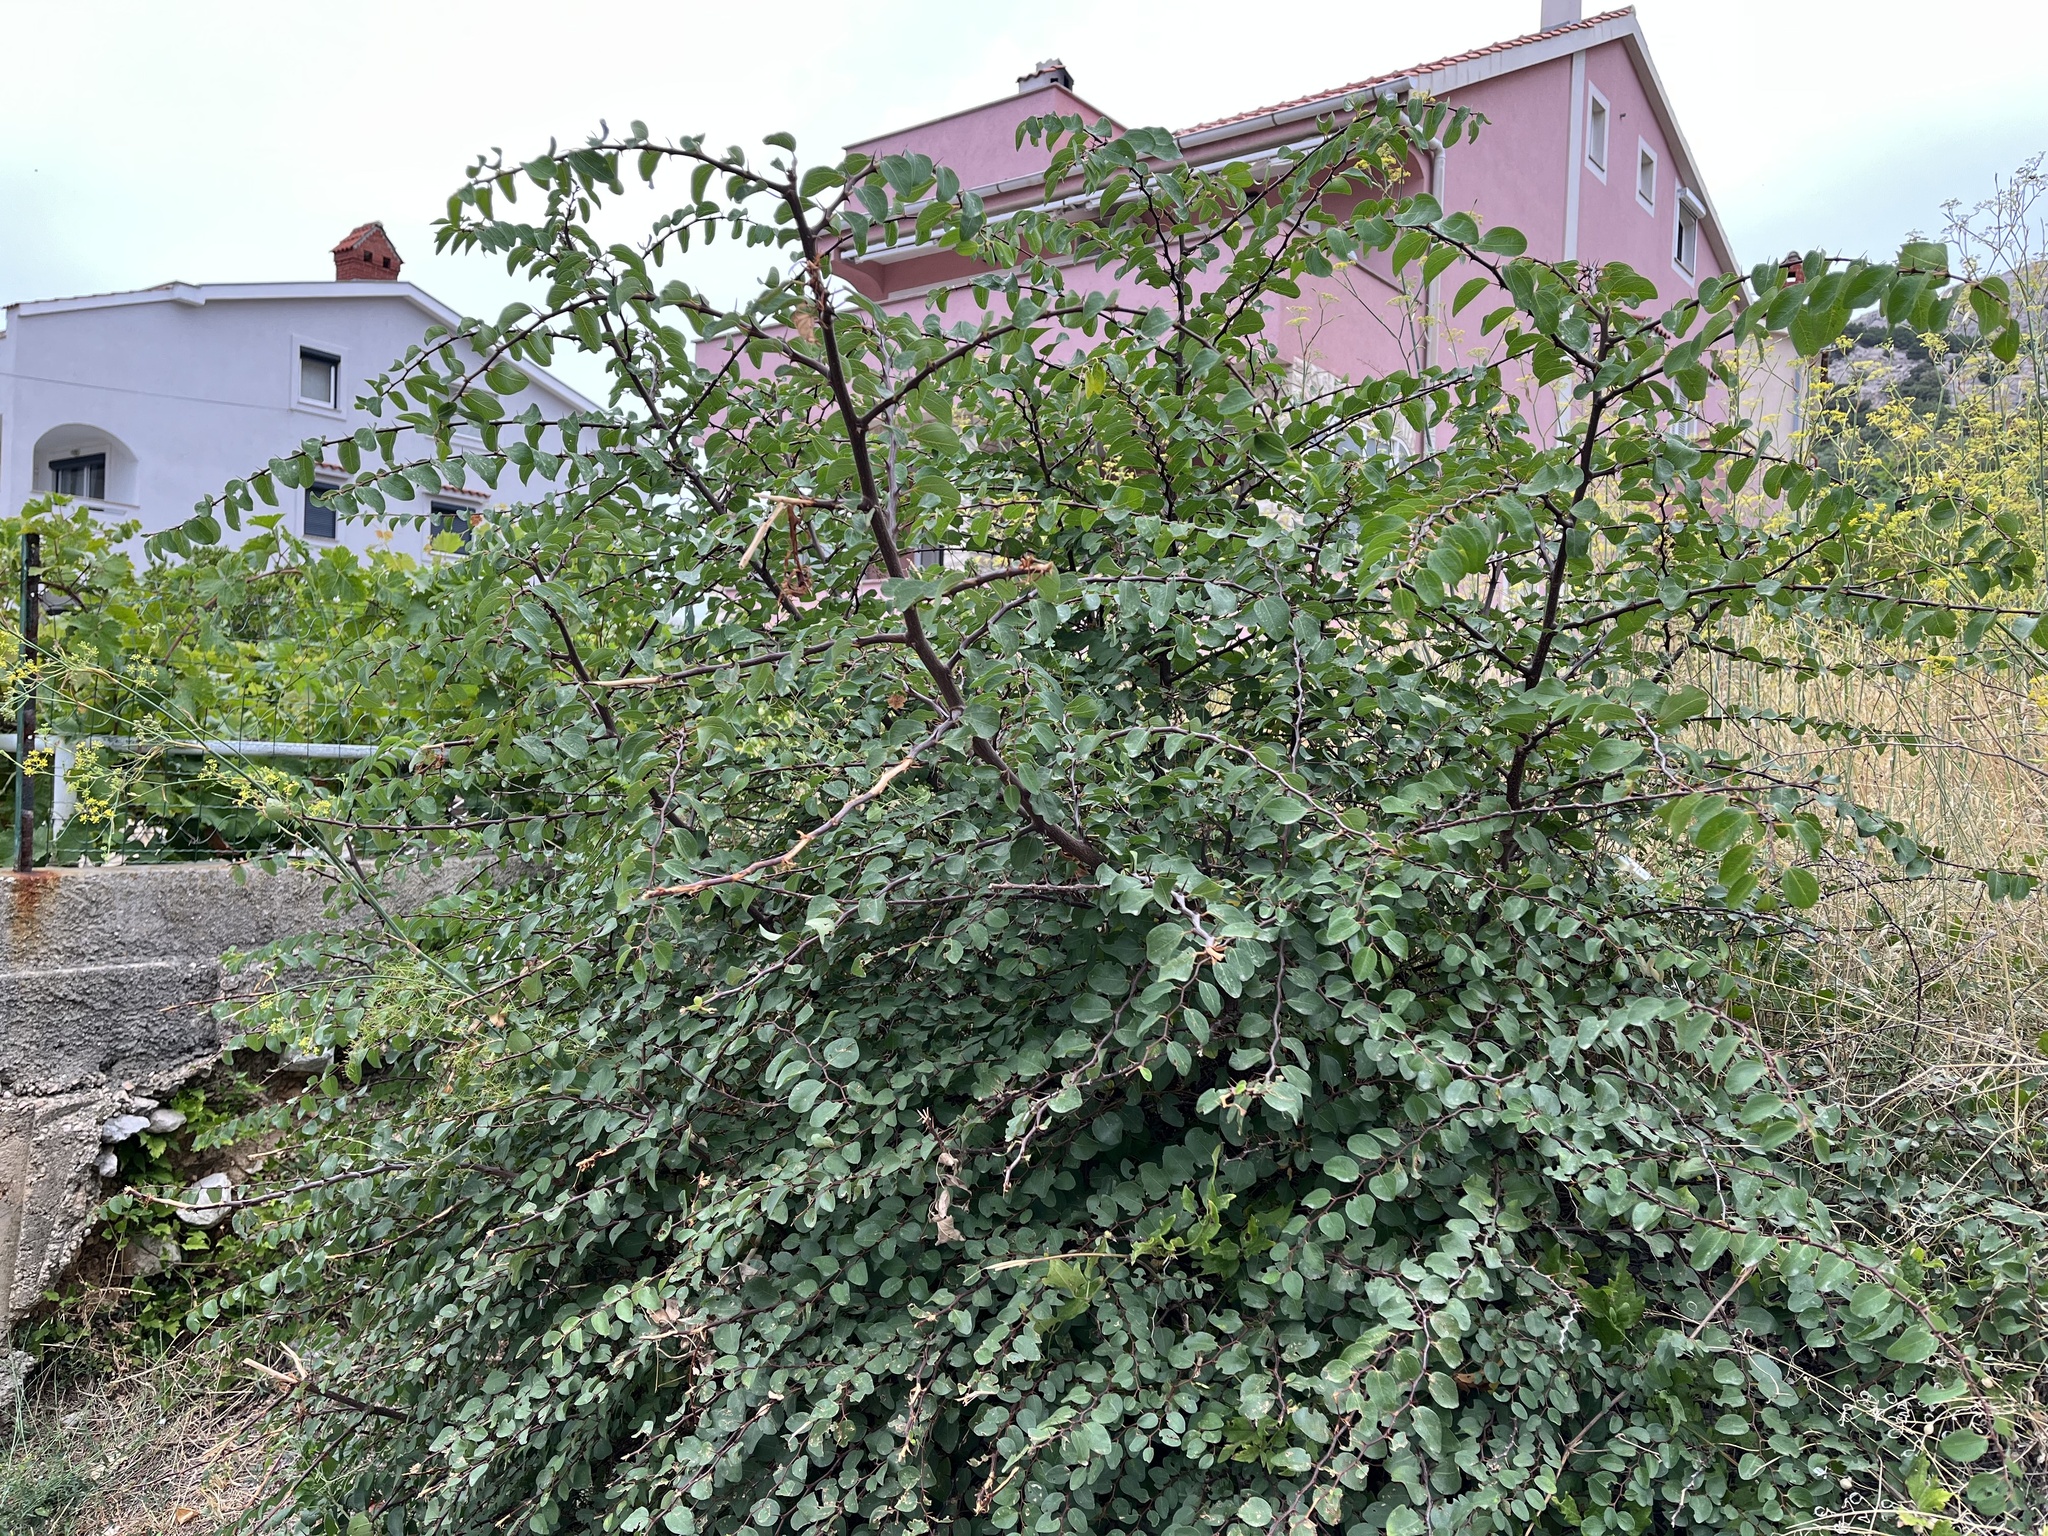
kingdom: Plantae
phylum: Tracheophyta
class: Magnoliopsida
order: Rosales
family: Rhamnaceae
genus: Paliurus
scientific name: Paliurus spina-christi
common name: Jeruselem thorn
